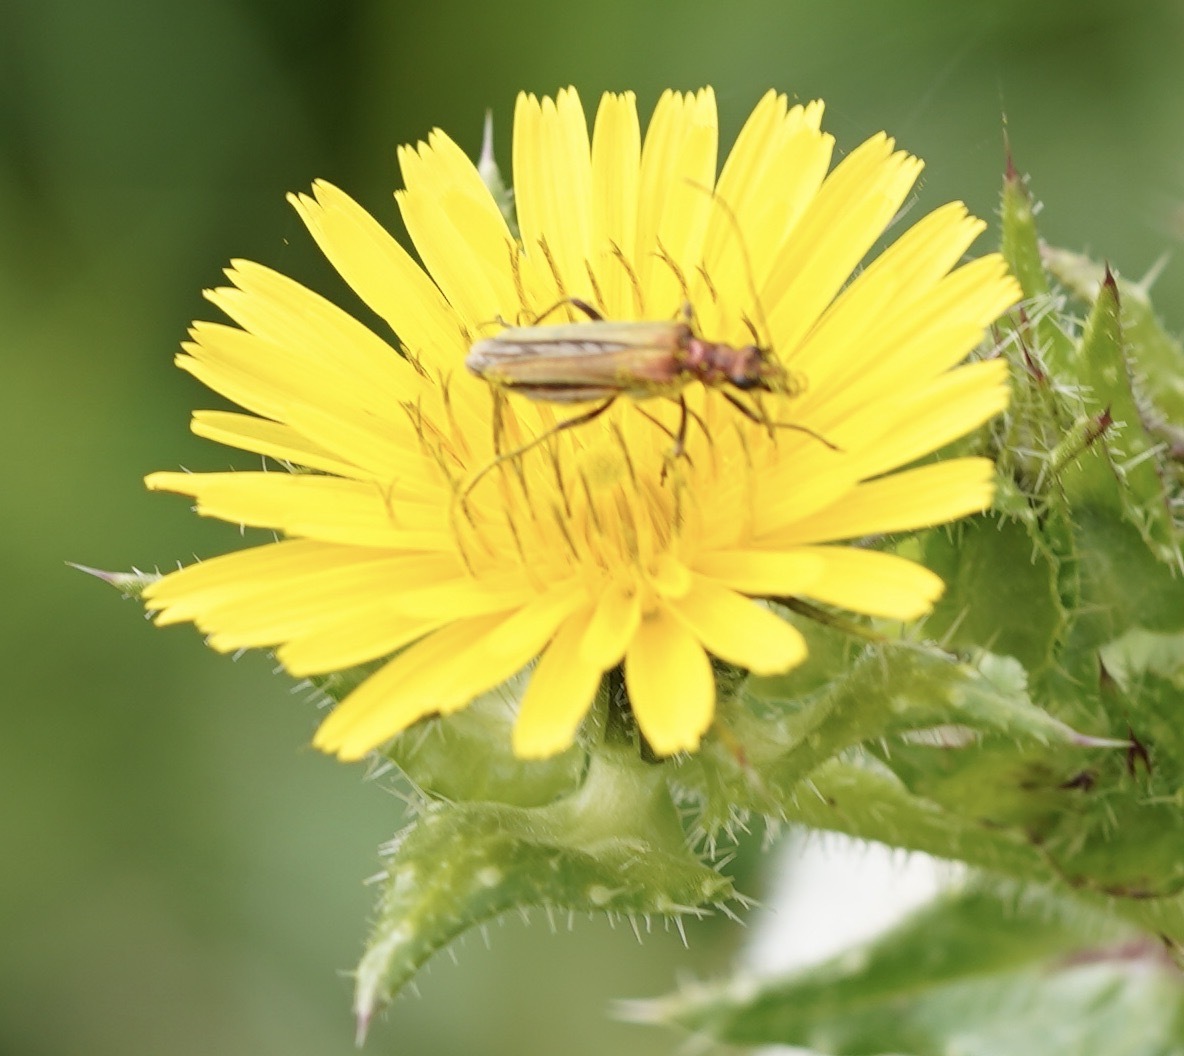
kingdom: Animalia
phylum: Arthropoda
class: Insecta
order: Coleoptera
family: Oedemeridae
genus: Oedemera
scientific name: Oedemera nobilis
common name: Swollen-thighed beetle
